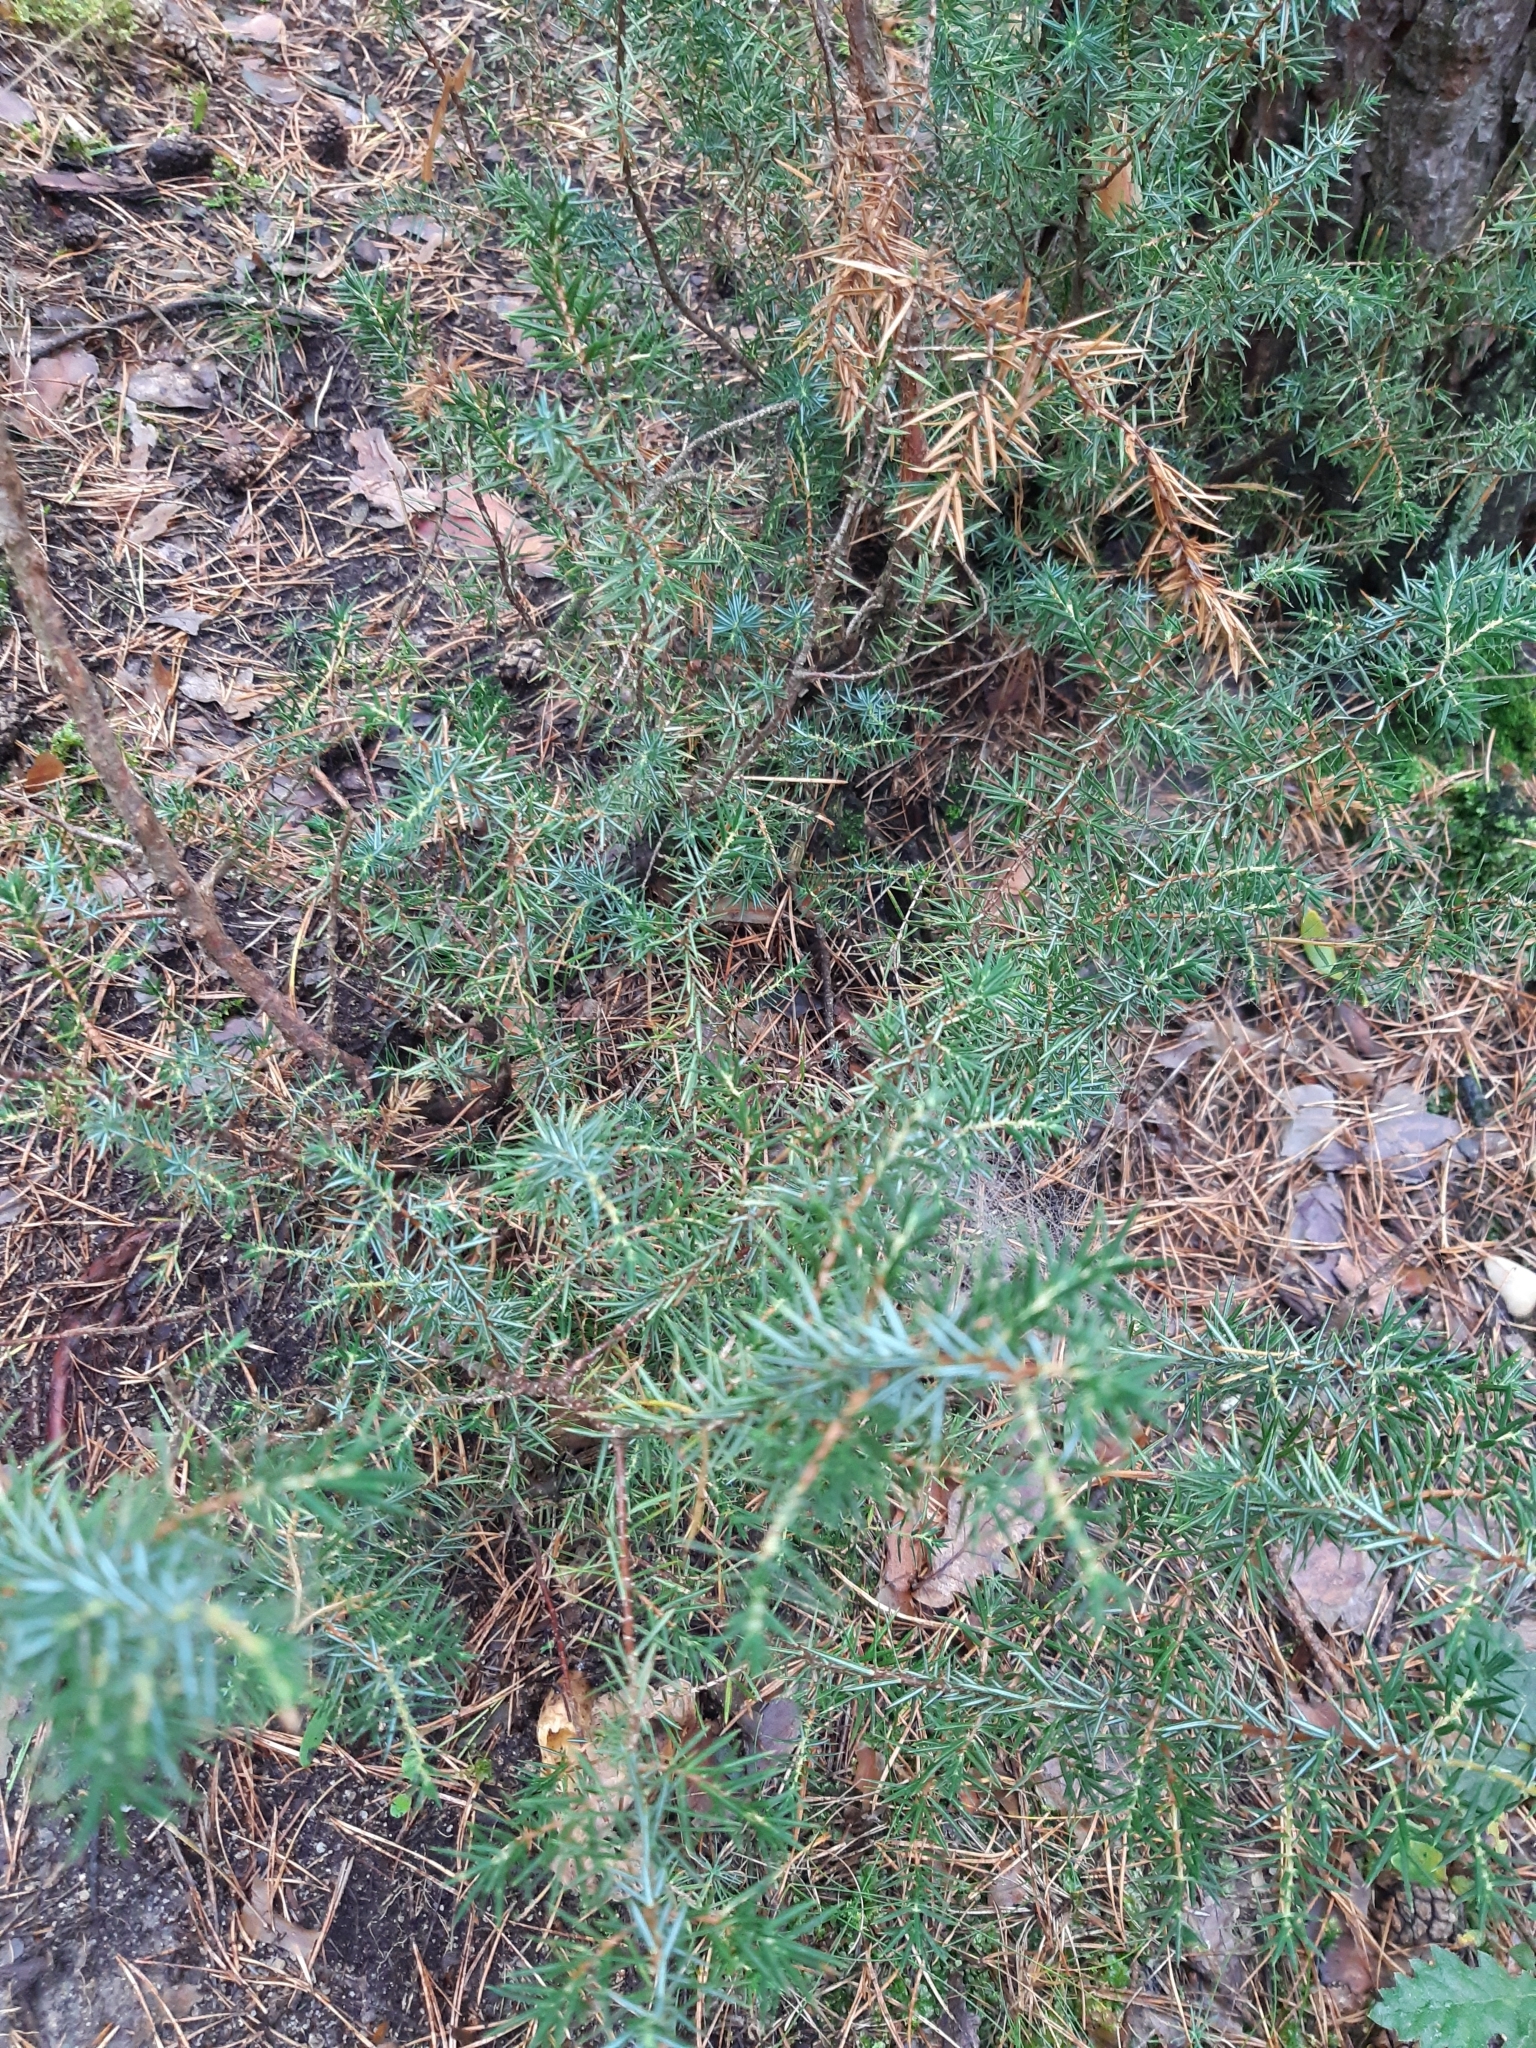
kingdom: Plantae
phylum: Tracheophyta
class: Pinopsida
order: Pinales
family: Cupressaceae
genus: Juniperus
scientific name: Juniperus communis
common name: Common juniper
